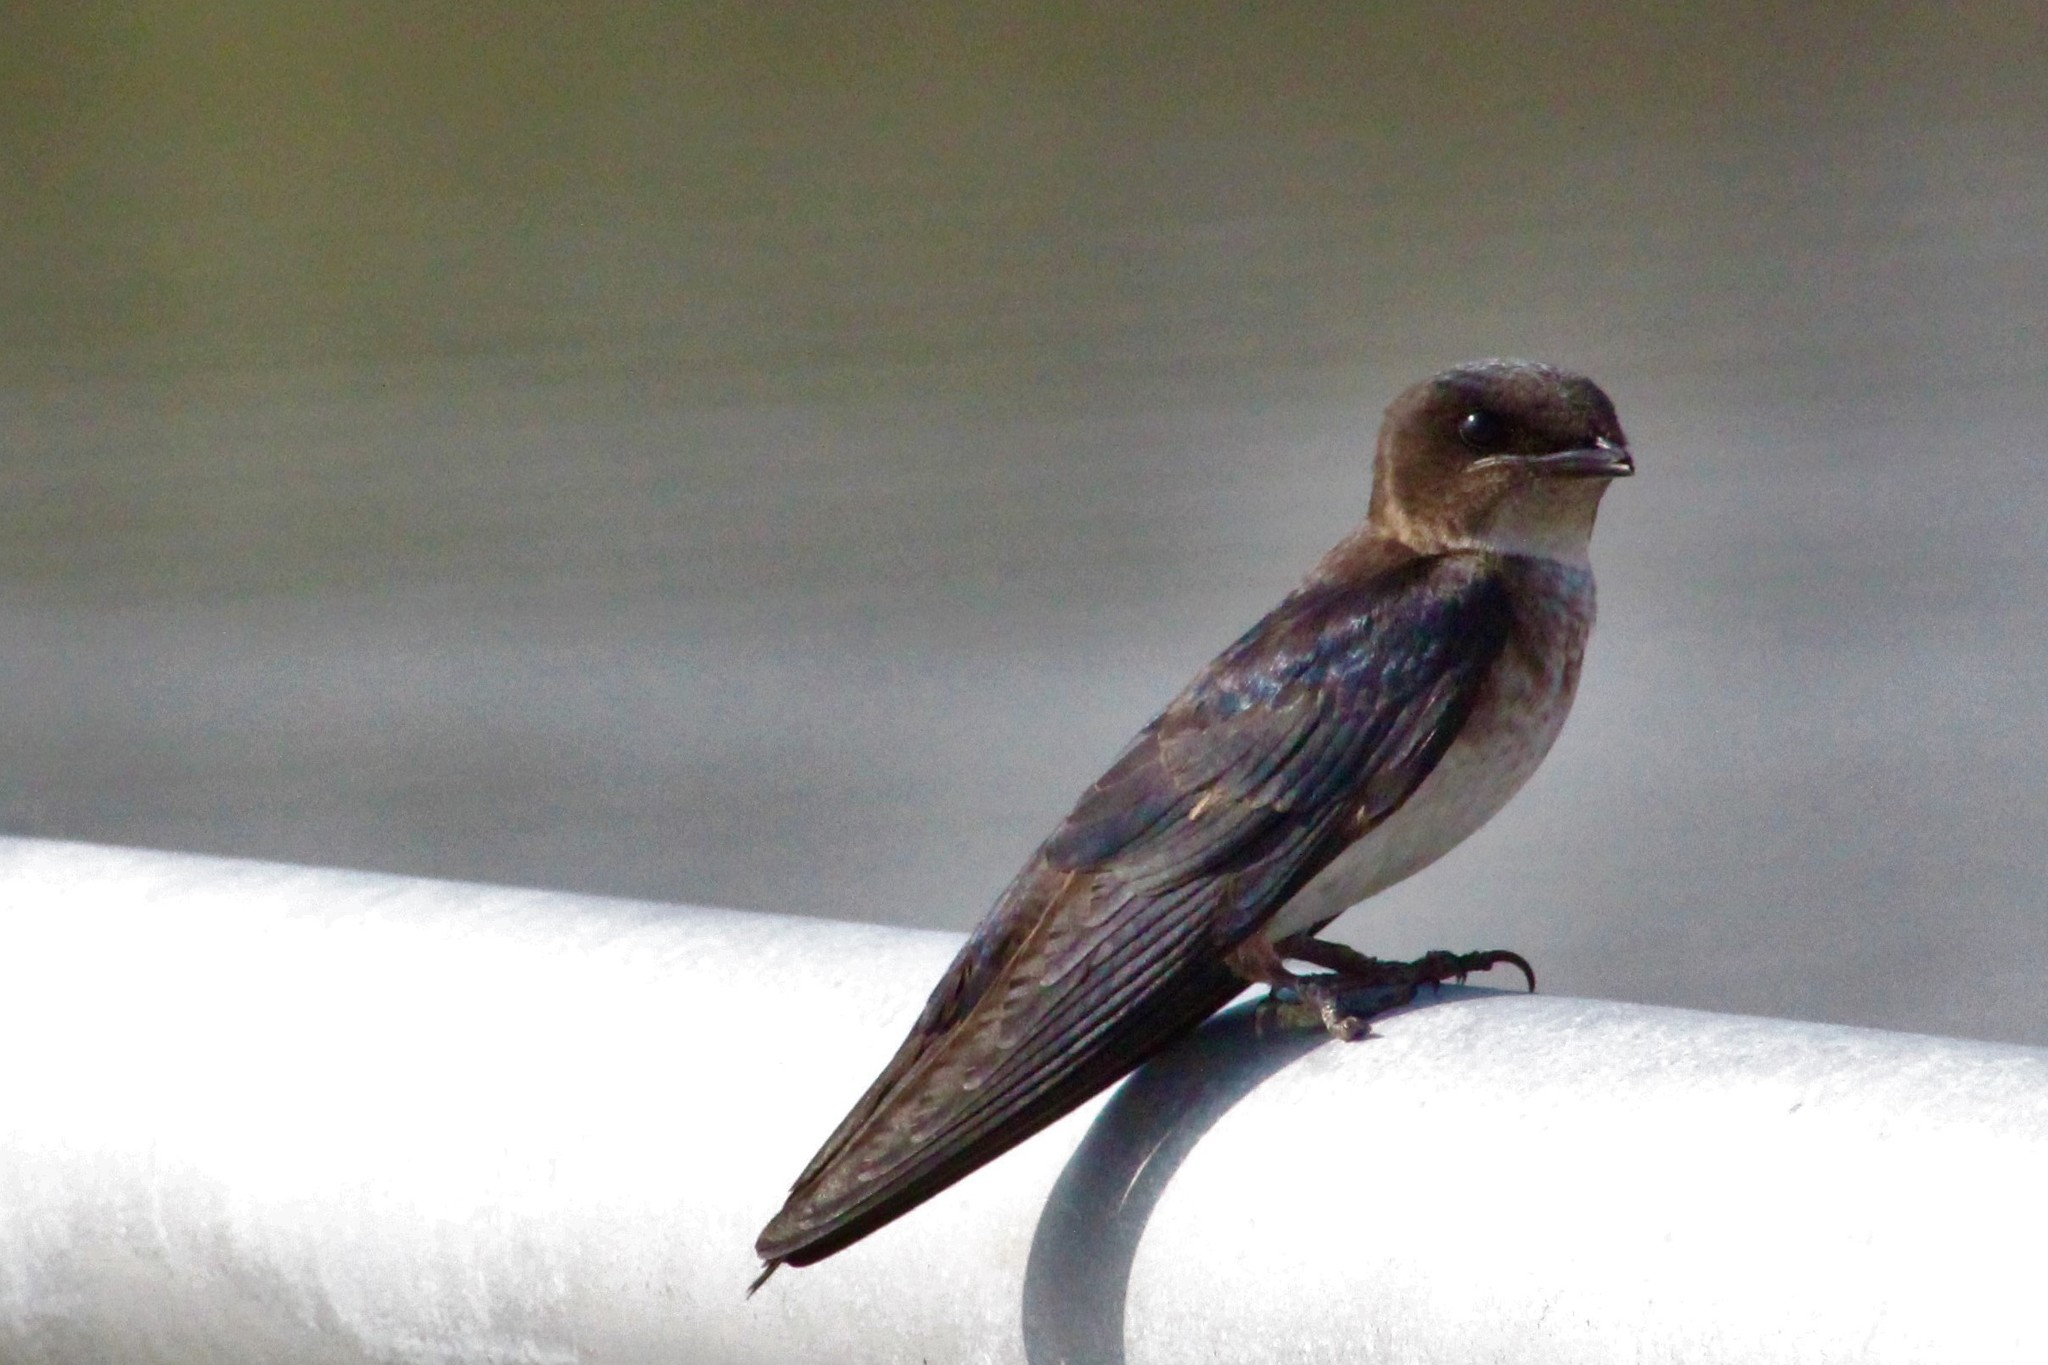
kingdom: Animalia
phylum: Chordata
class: Aves
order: Passeriformes
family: Hirundinidae
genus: Progne
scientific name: Progne chalybea
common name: Grey-breasted martin
